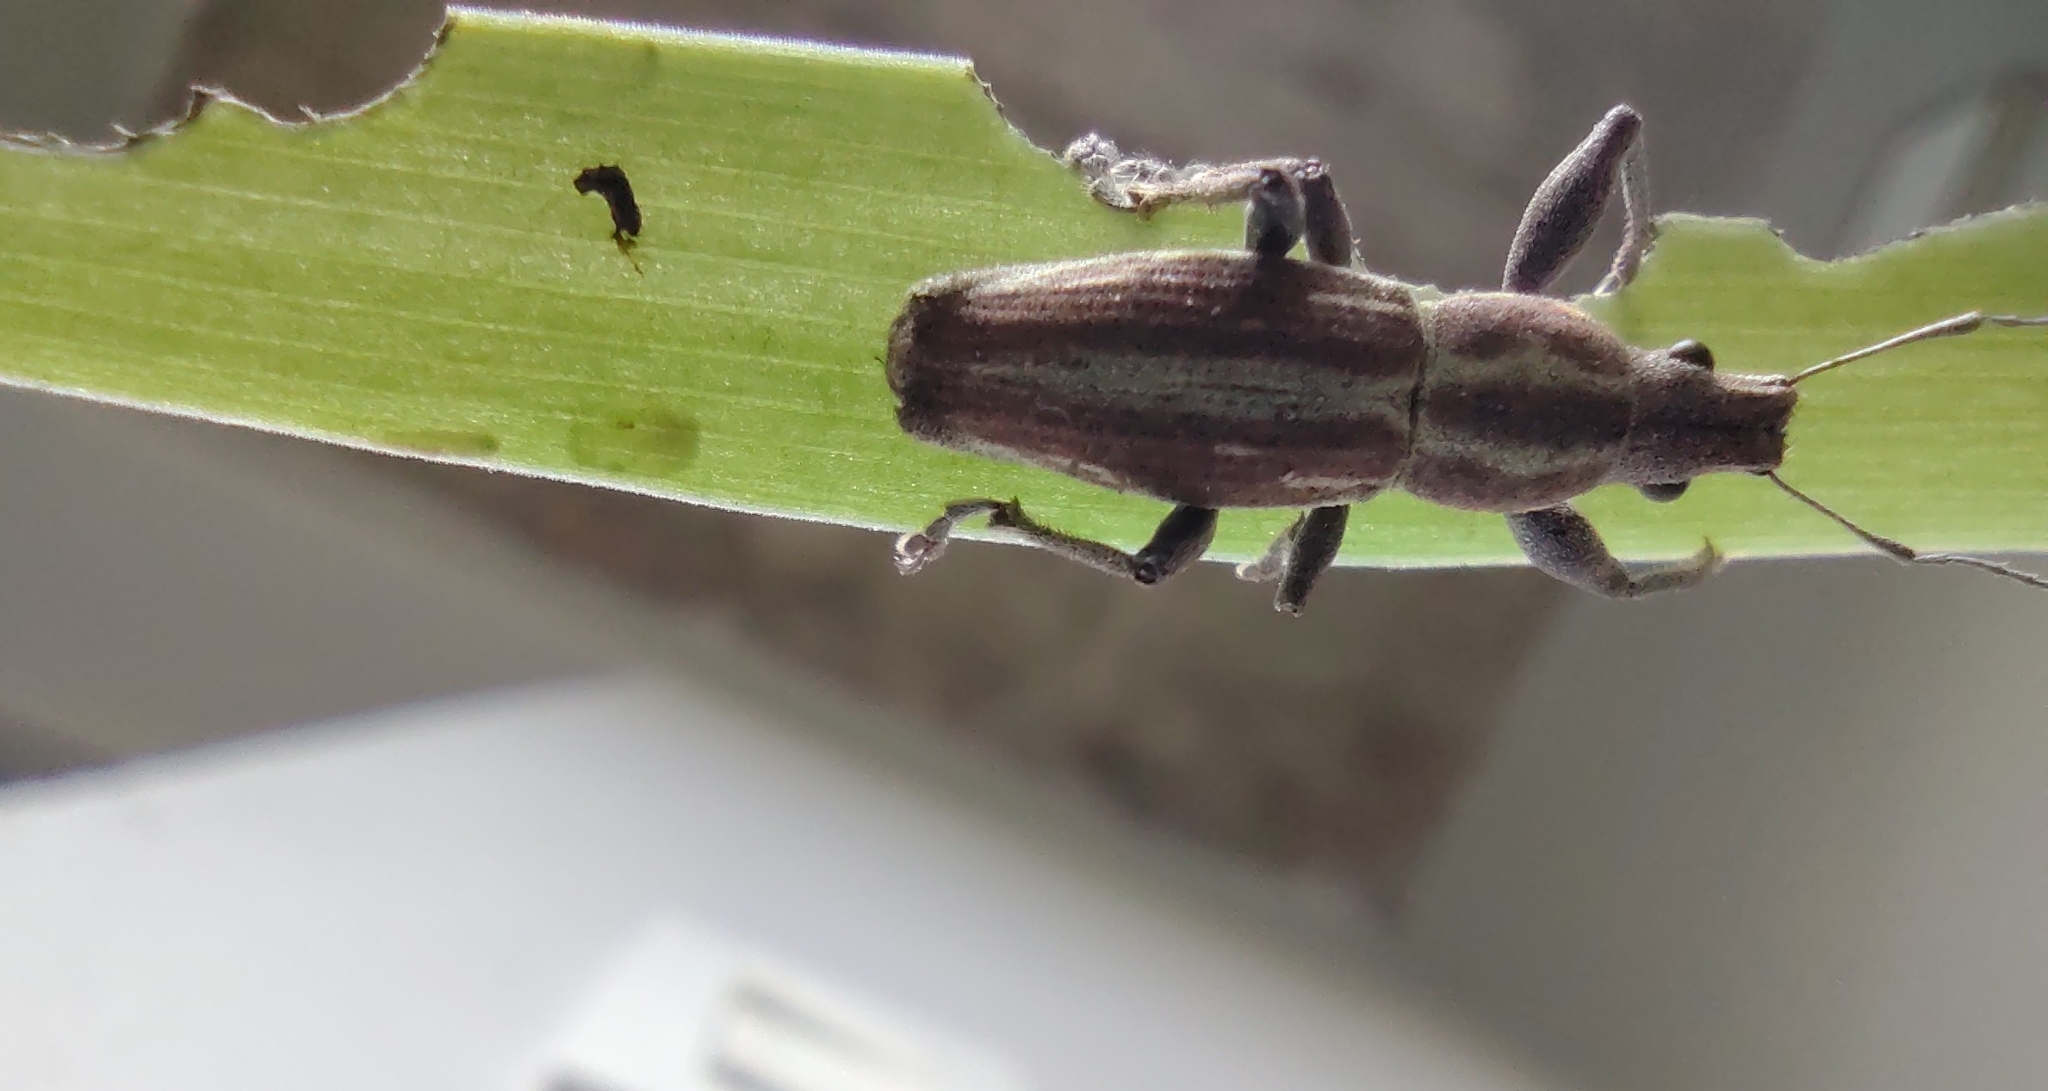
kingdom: Animalia
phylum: Arthropoda
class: Insecta
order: Coleoptera
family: Curculionidae
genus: Naupactus
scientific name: Naupactus xanthographus
